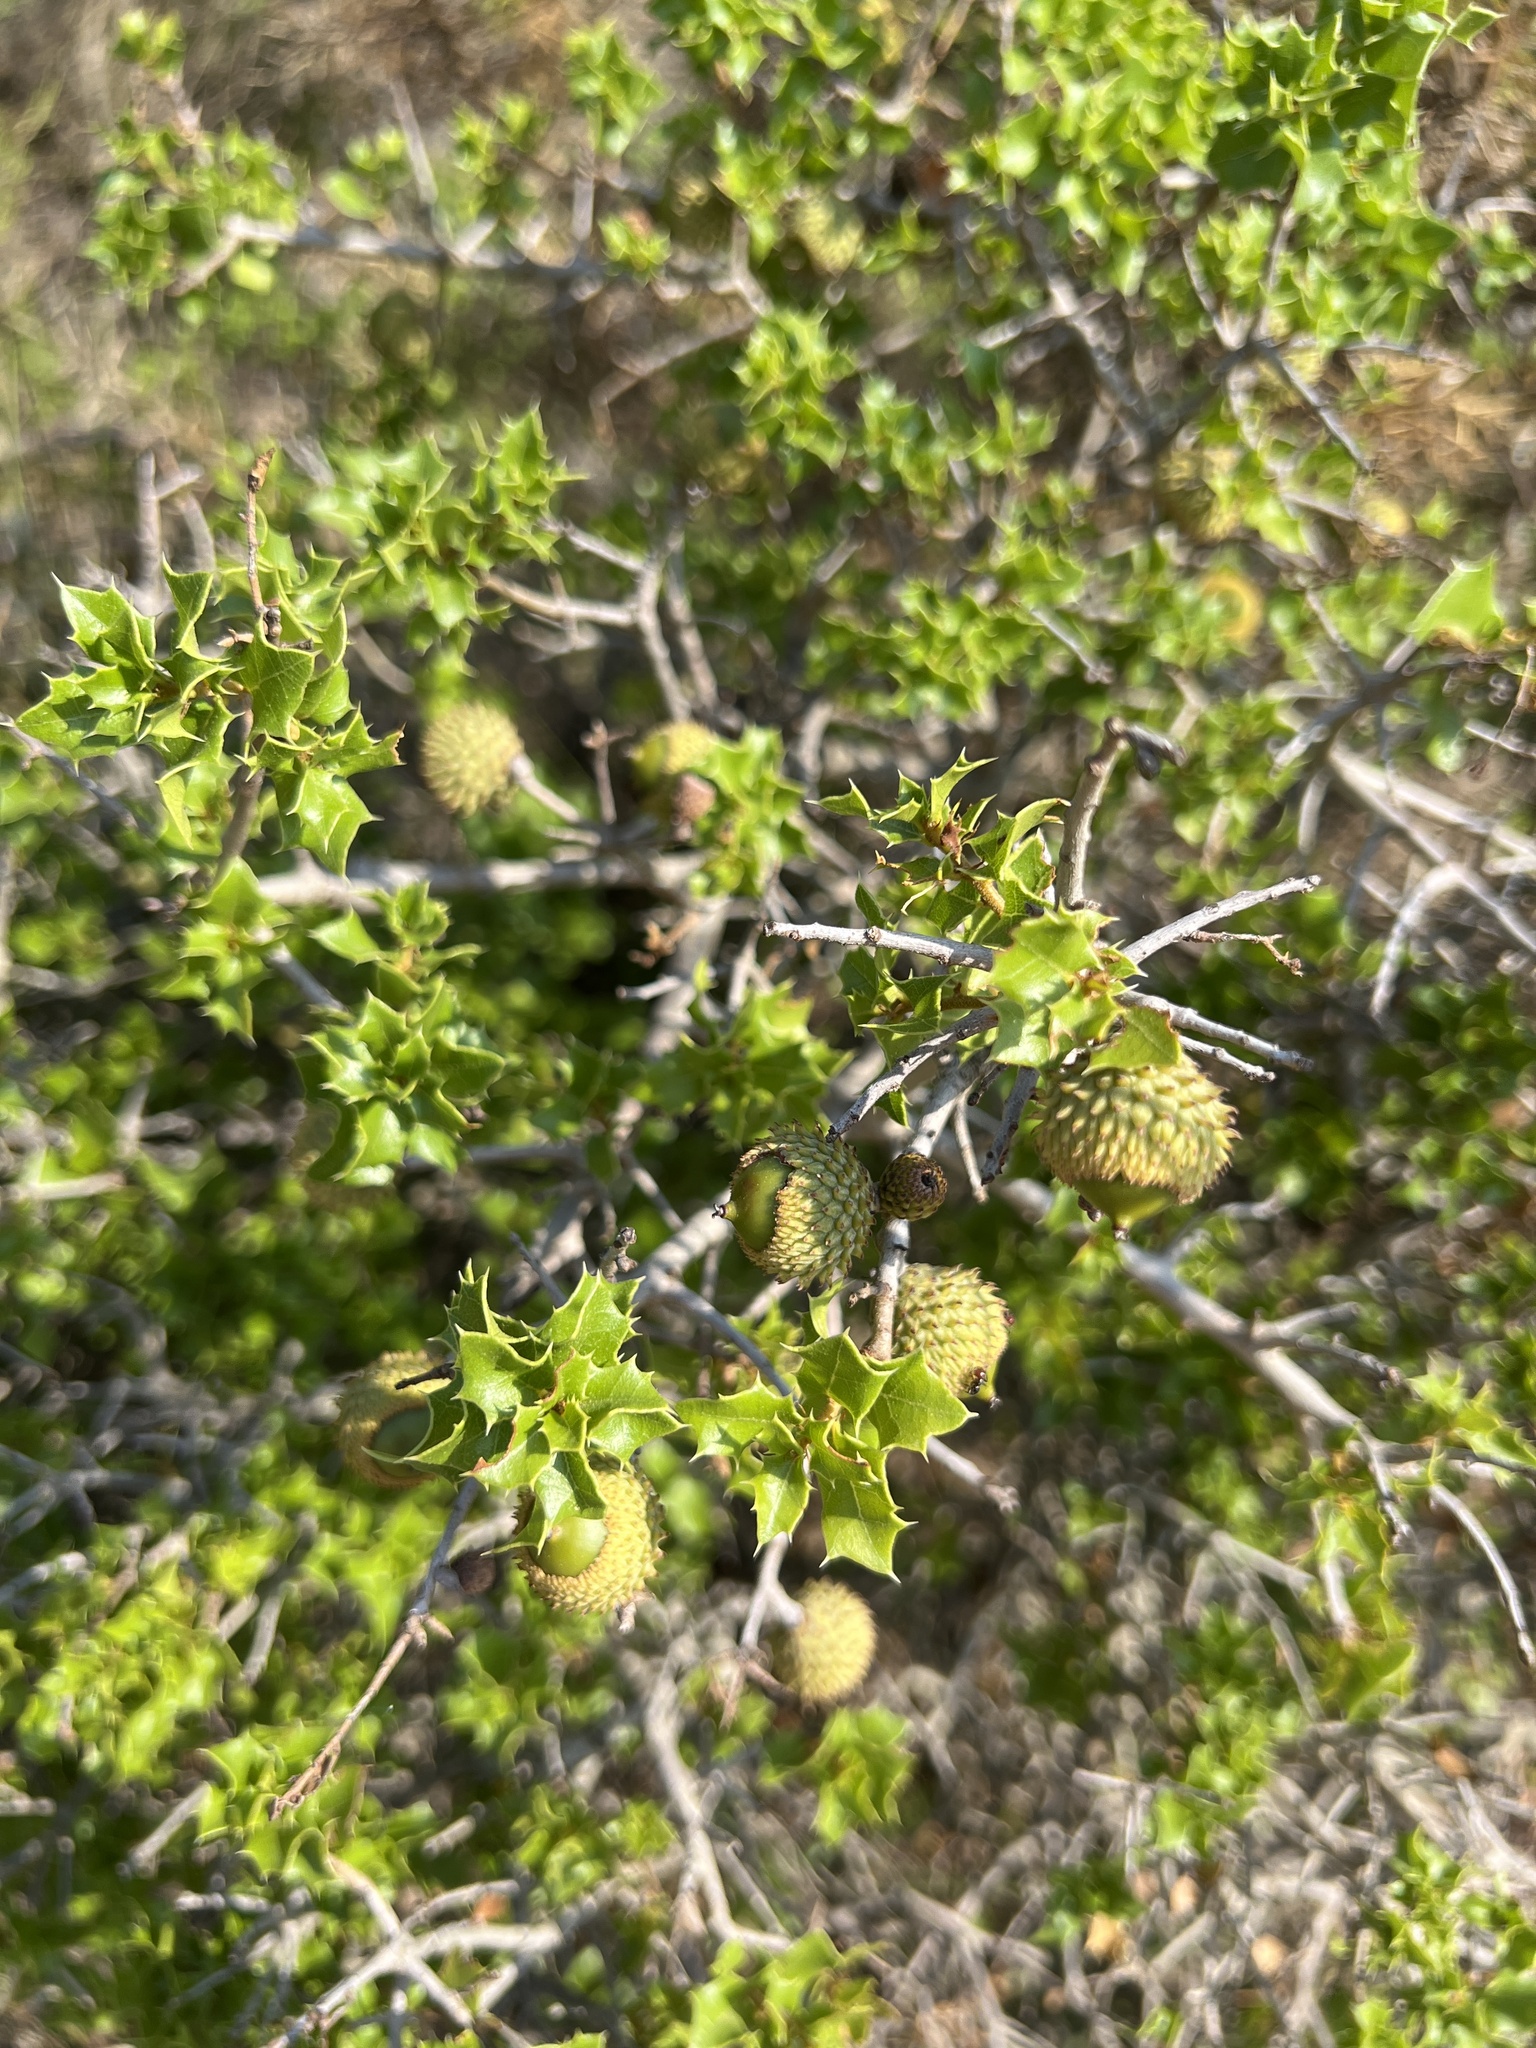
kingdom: Plantae
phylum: Tracheophyta
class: Magnoliopsida
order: Fagales
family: Fagaceae
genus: Quercus
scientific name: Quercus coccifera
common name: Kermes oak
